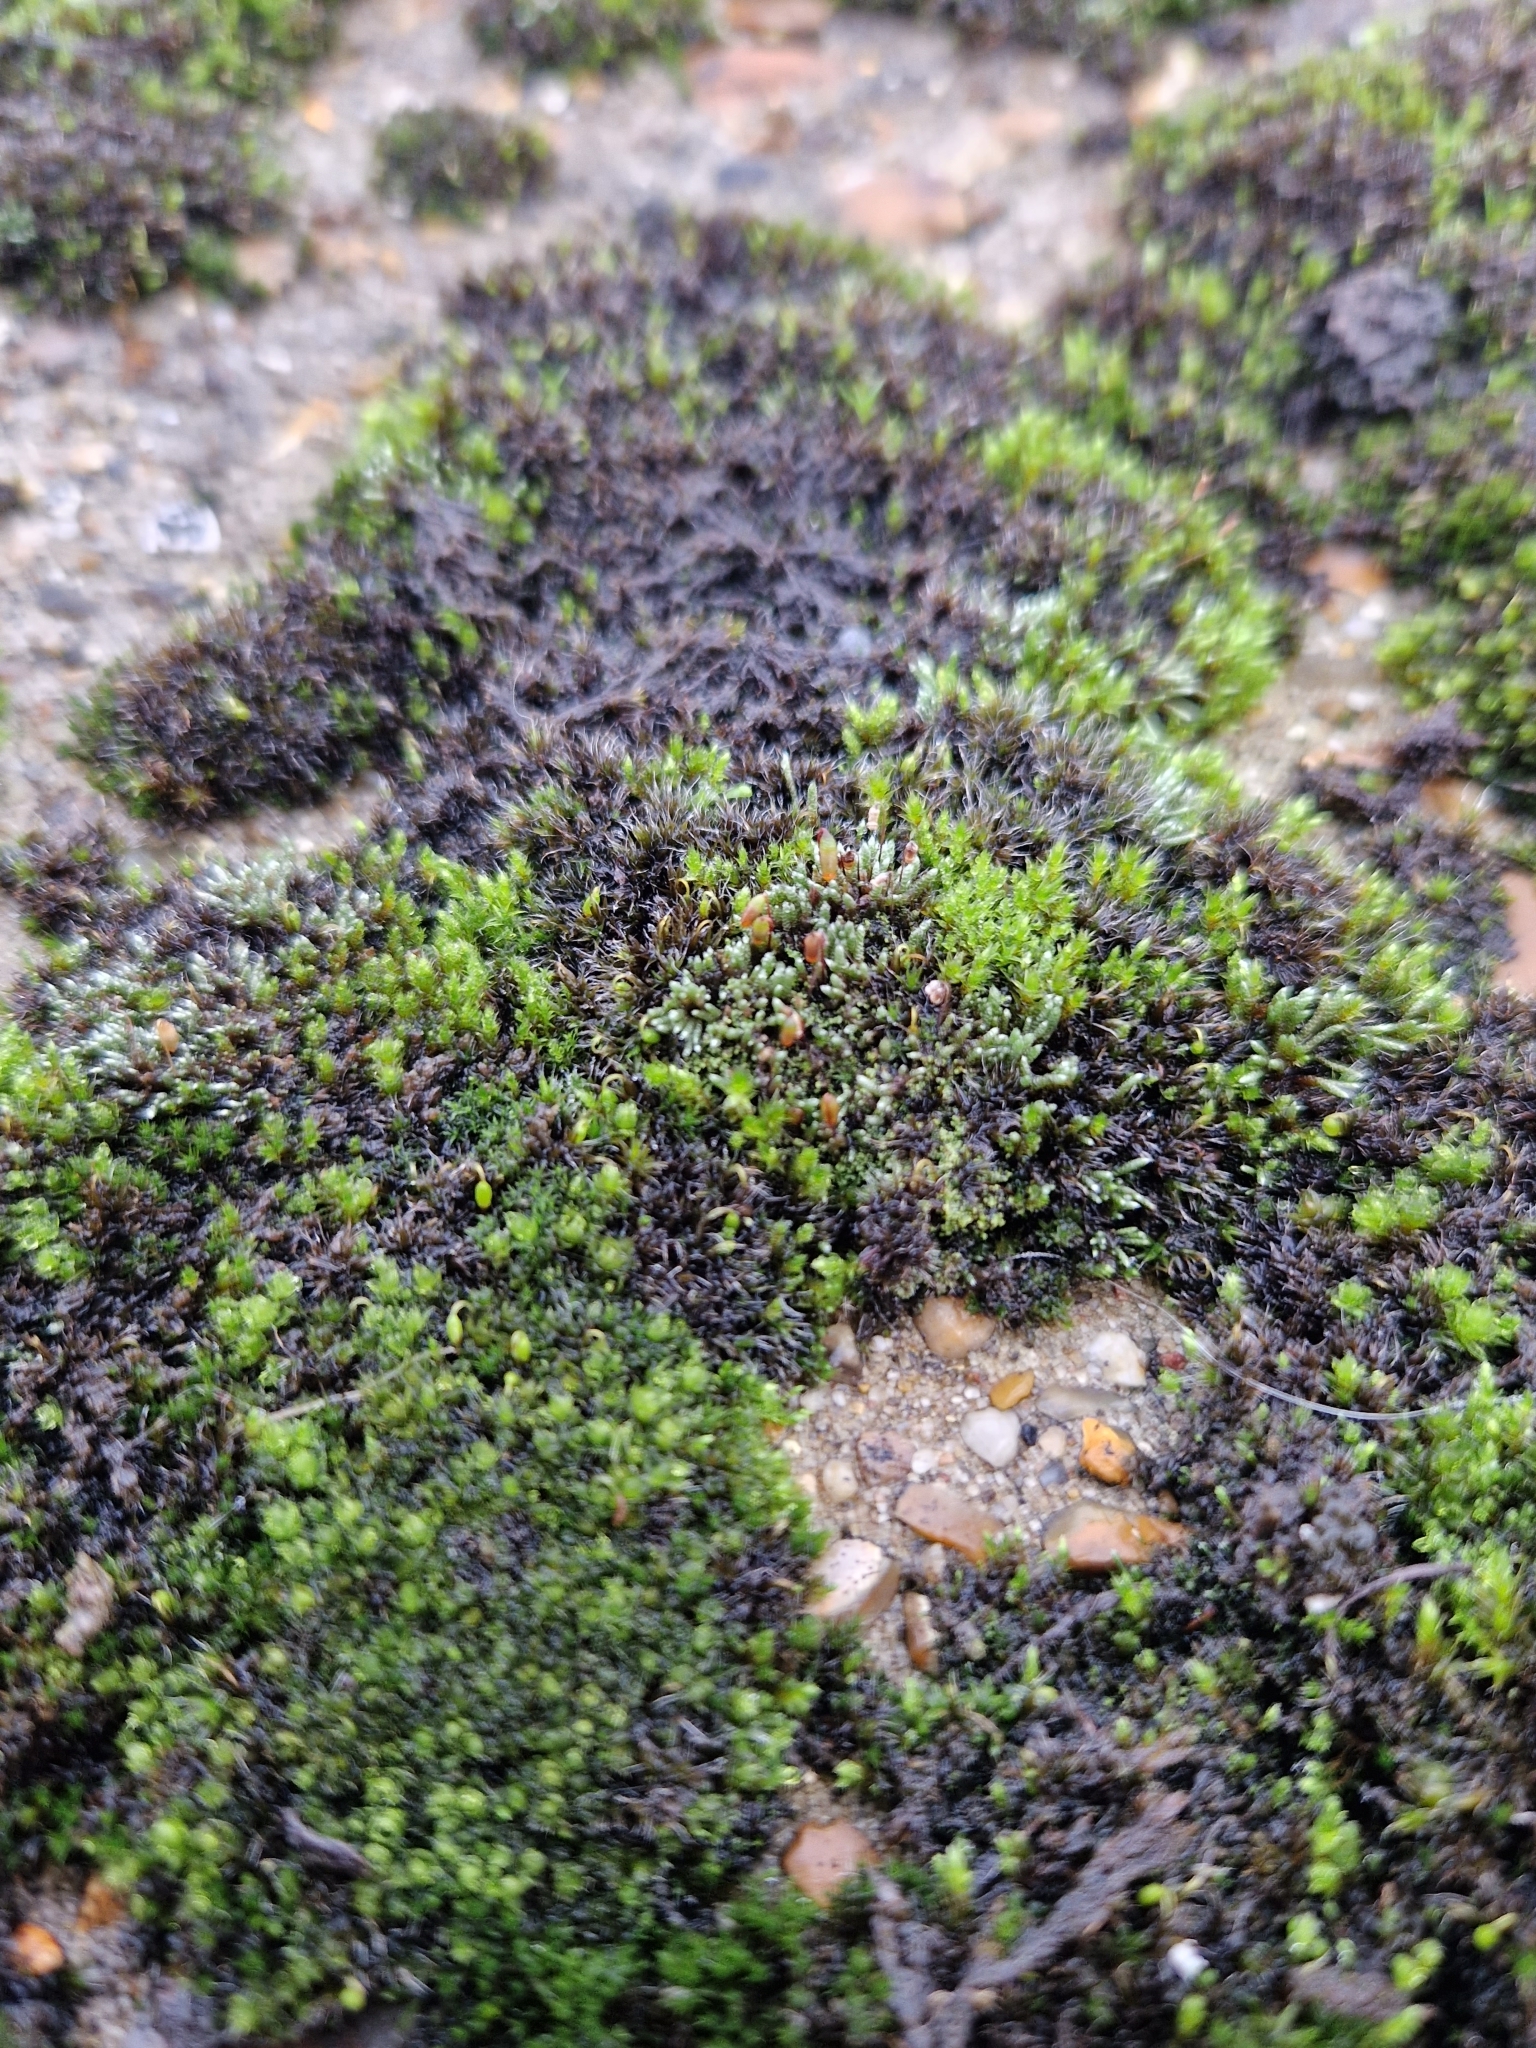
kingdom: Plantae
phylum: Bryophyta
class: Bryopsida
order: Bryales
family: Bryaceae
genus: Bryum
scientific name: Bryum argenteum
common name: Silver-moss
